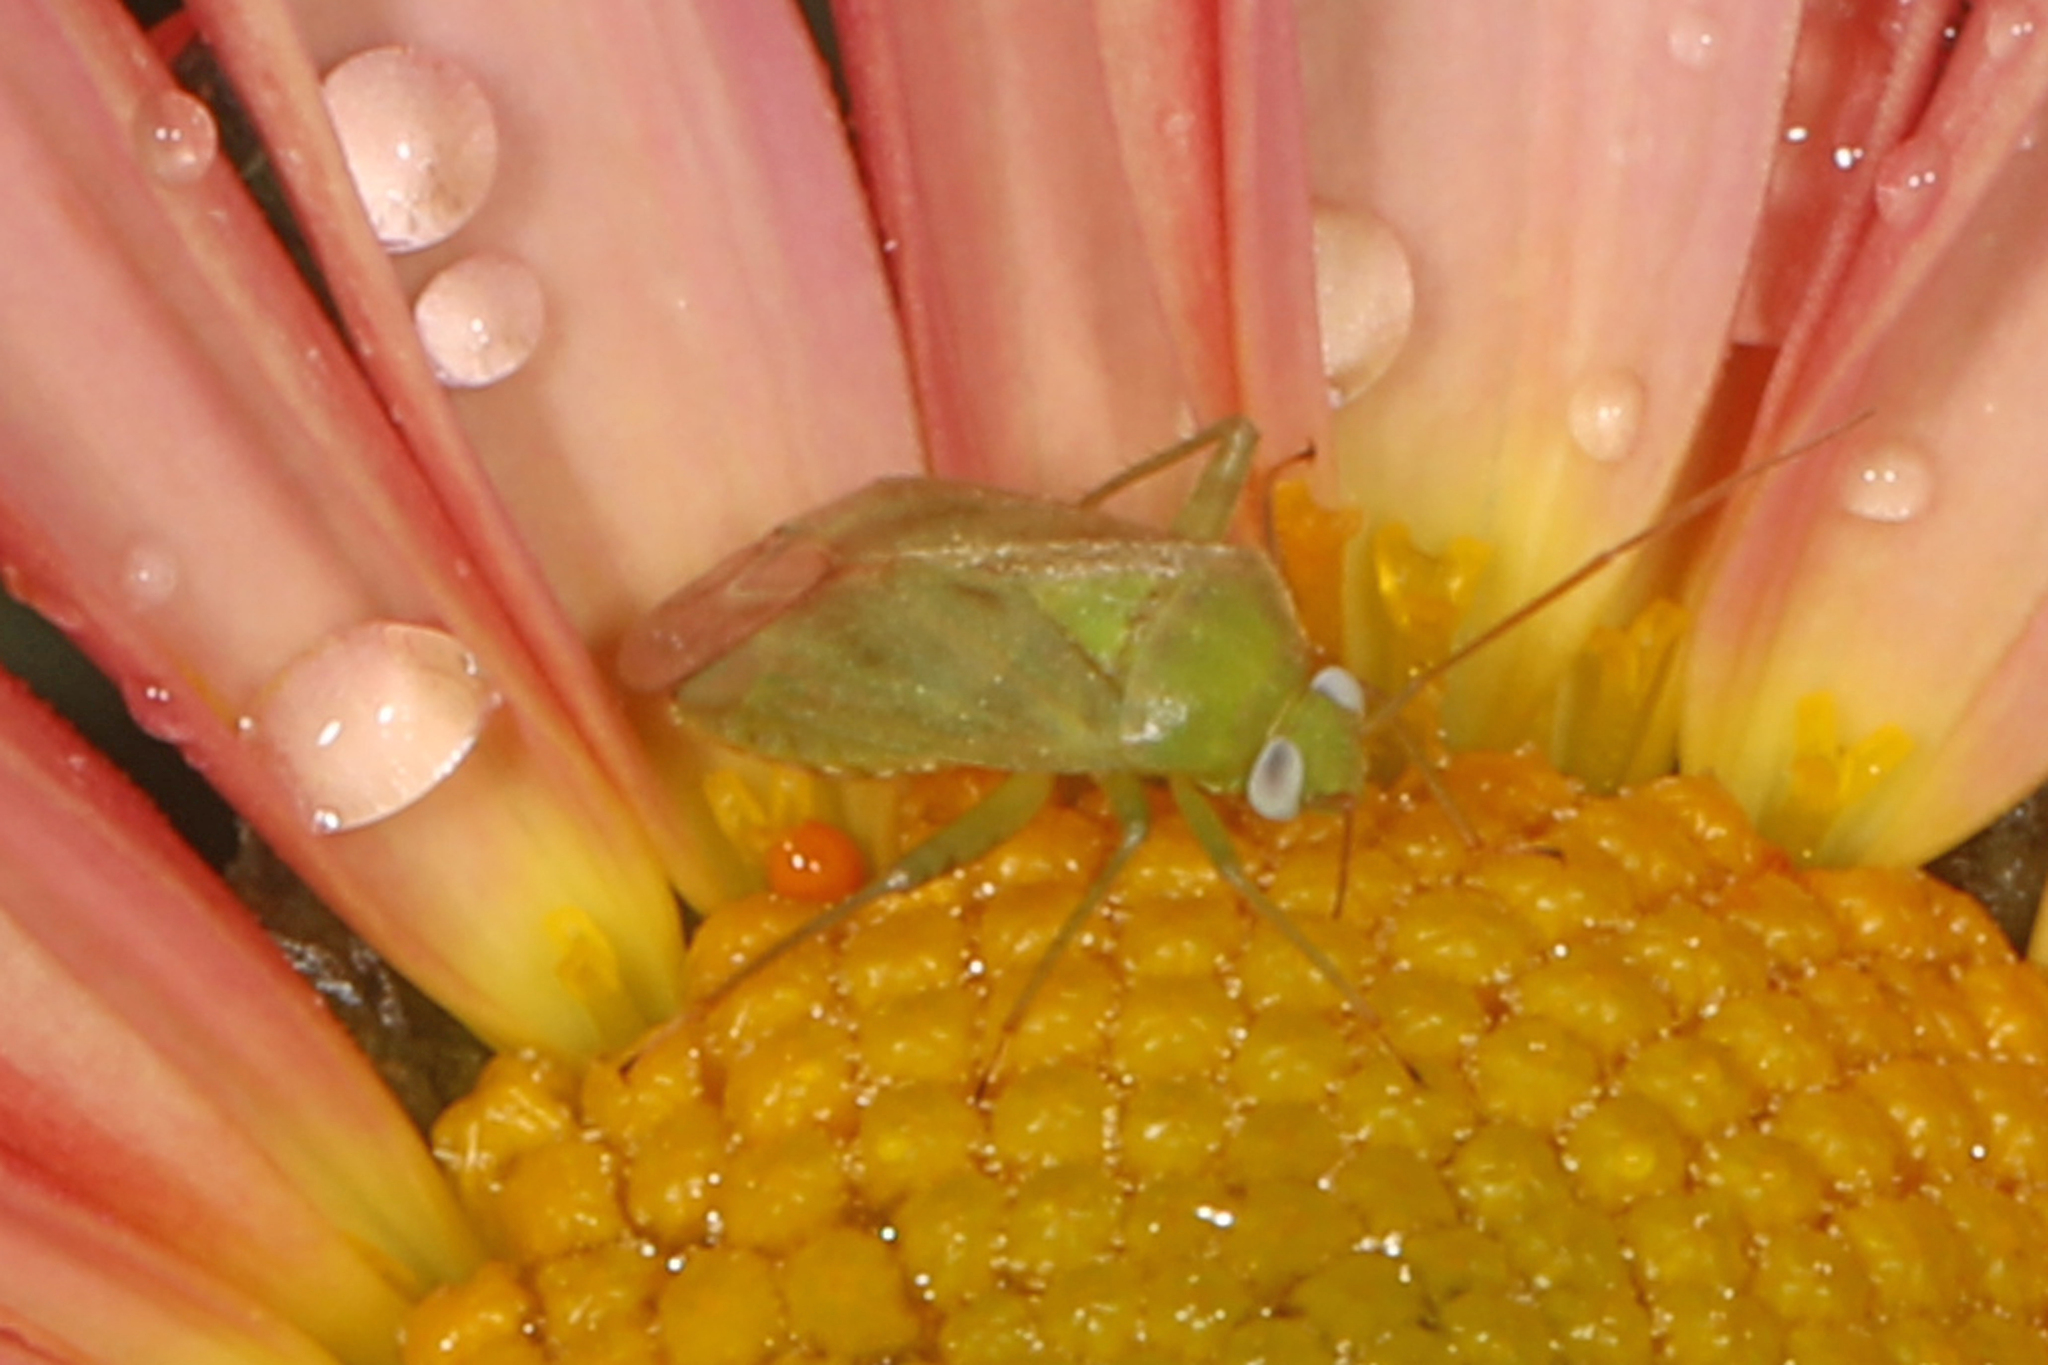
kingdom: Animalia
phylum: Arthropoda
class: Insecta
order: Hemiptera
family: Miridae
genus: Taylorilygus
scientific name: Taylorilygus apicalis
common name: Plant bug
